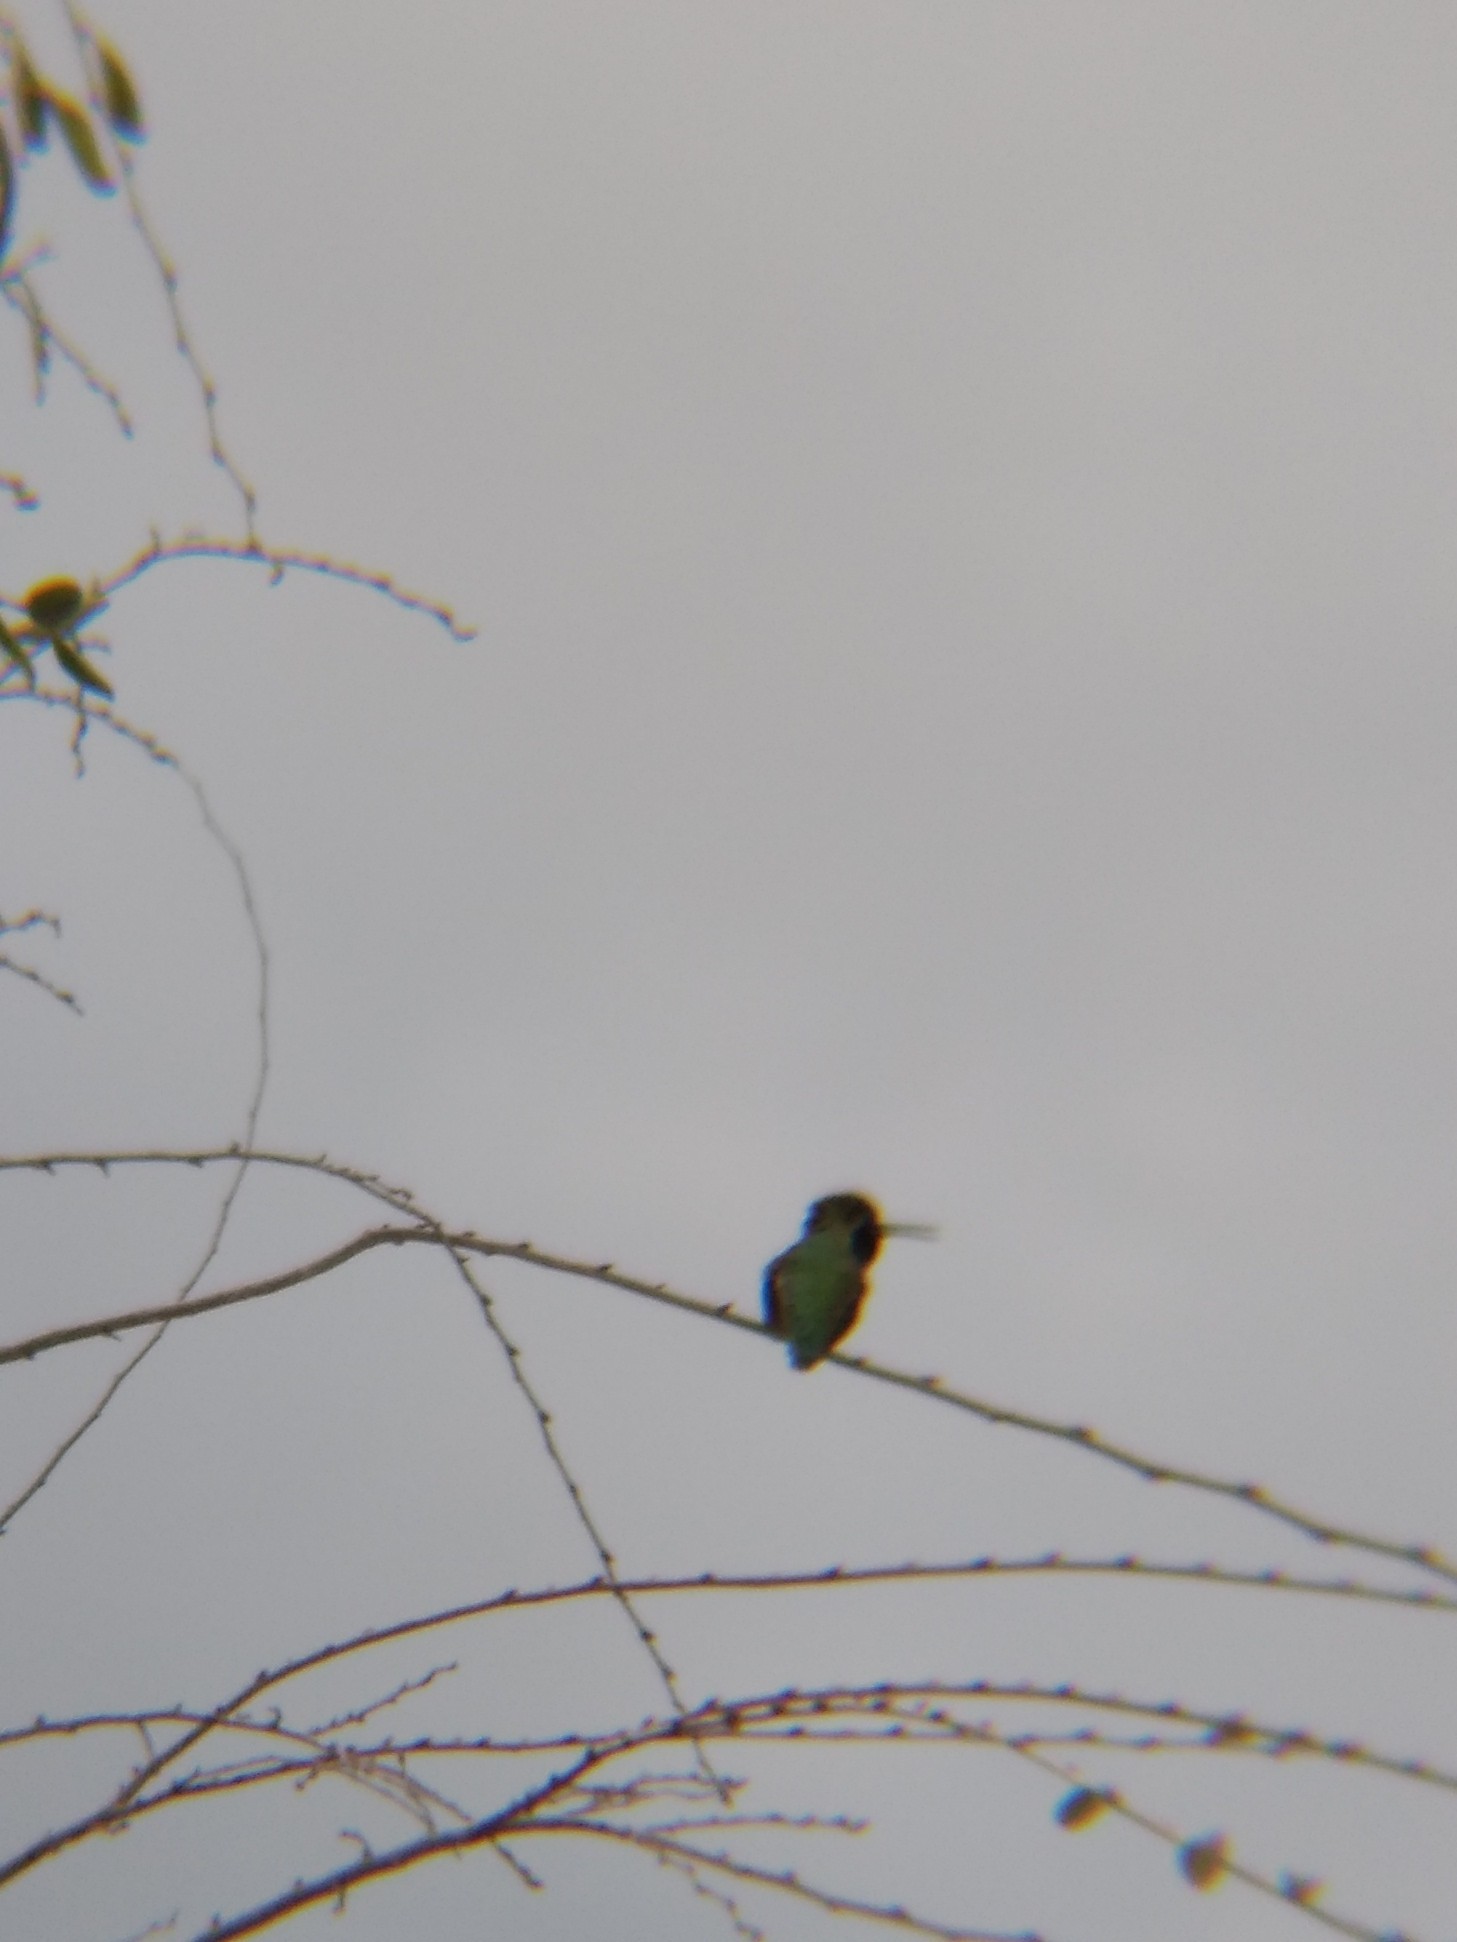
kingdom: Animalia
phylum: Chordata
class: Aves
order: Apodiformes
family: Trochilidae
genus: Calypte
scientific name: Calypte anna
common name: Anna's hummingbird
